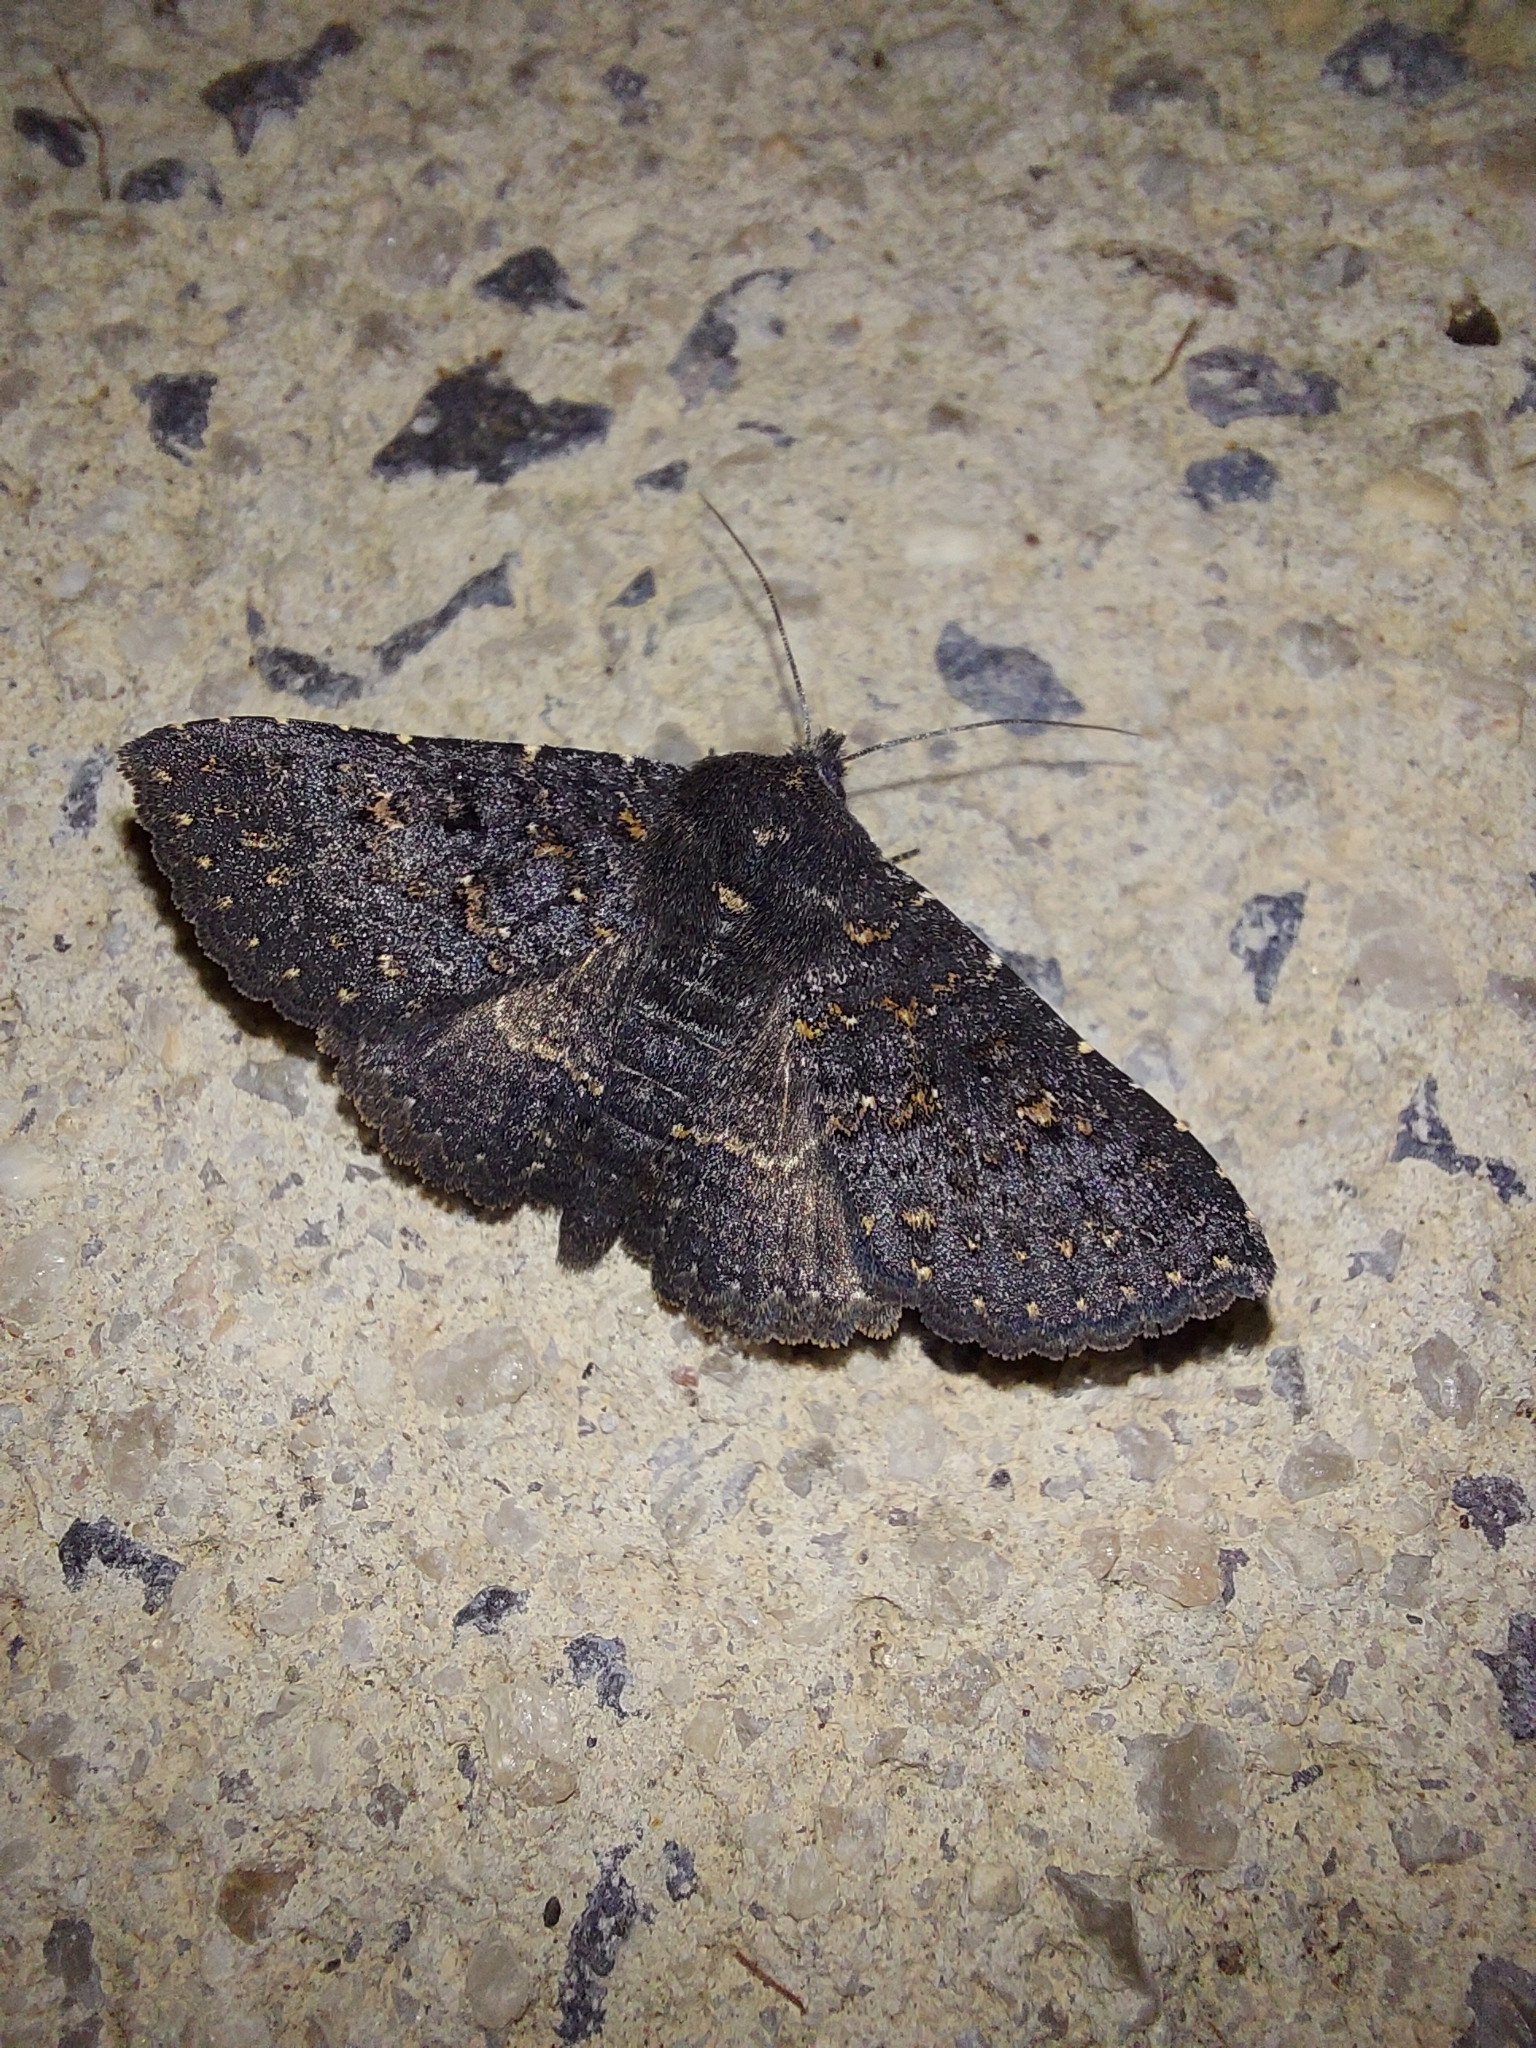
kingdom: Animalia
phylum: Arthropoda
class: Insecta
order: Lepidoptera
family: Erebidae
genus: Praxis
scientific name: Praxis edwardsii
